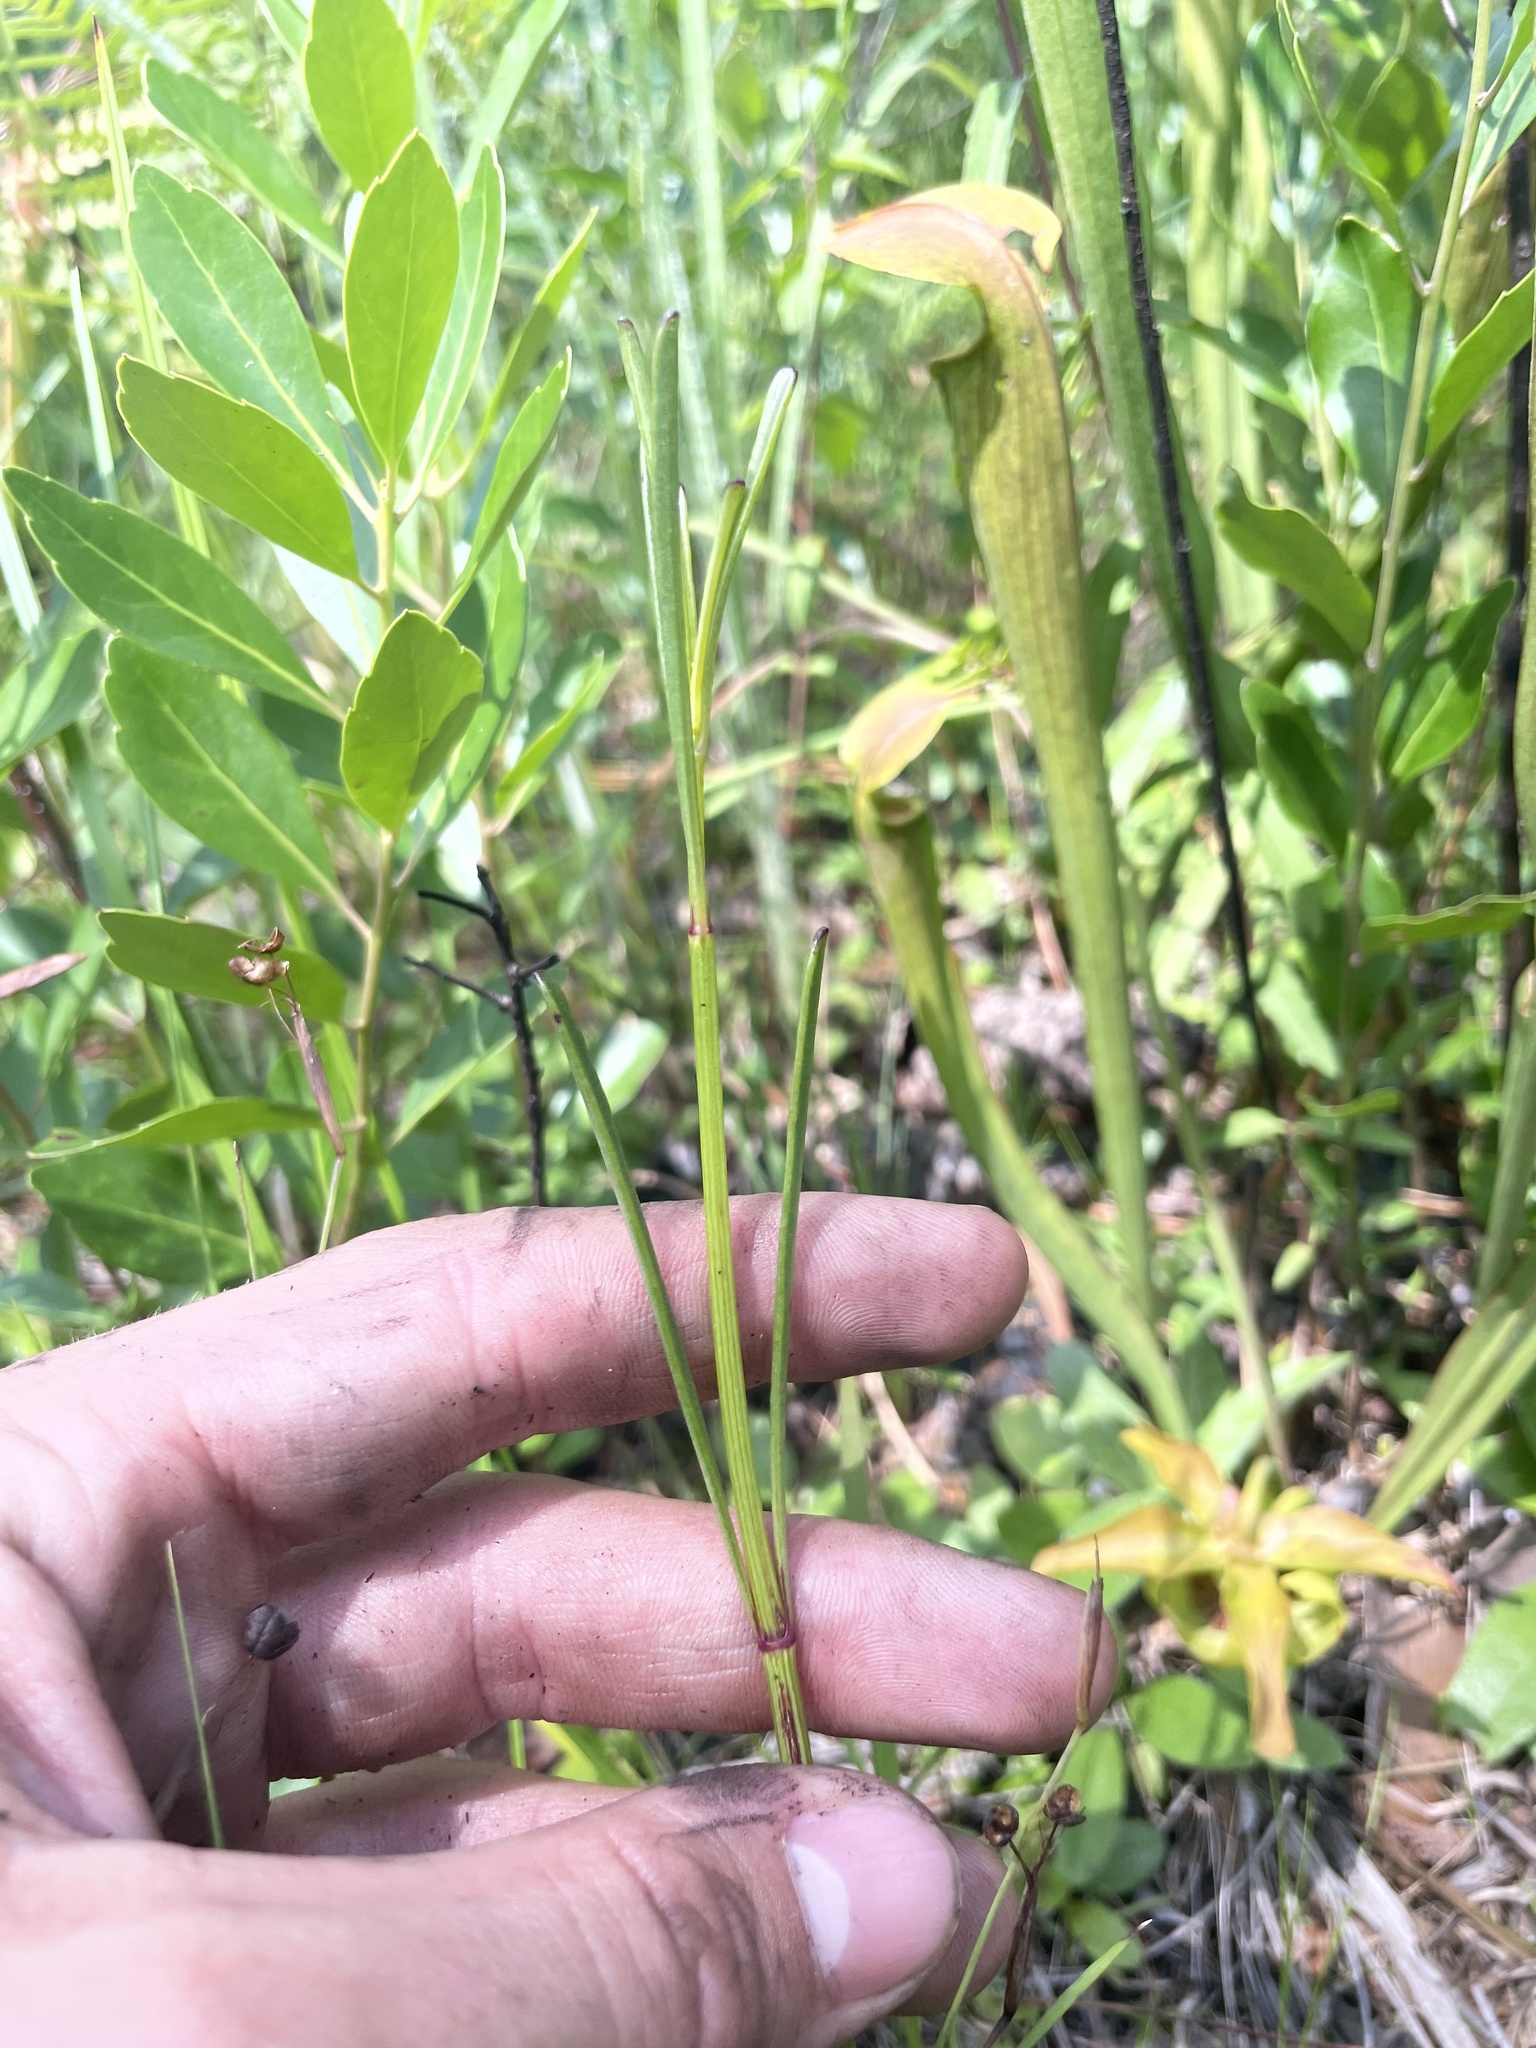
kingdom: Plantae
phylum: Tracheophyta
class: Magnoliopsida
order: Asterales
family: Asteraceae
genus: Coreopsis
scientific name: Coreopsis gladiata
